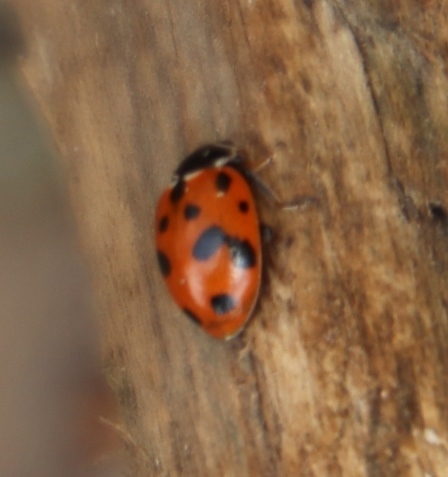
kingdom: Animalia
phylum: Arthropoda
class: Insecta
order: Coleoptera
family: Coccinellidae
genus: Hippodamia
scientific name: Hippodamia variegata
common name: Ladybird beetle
